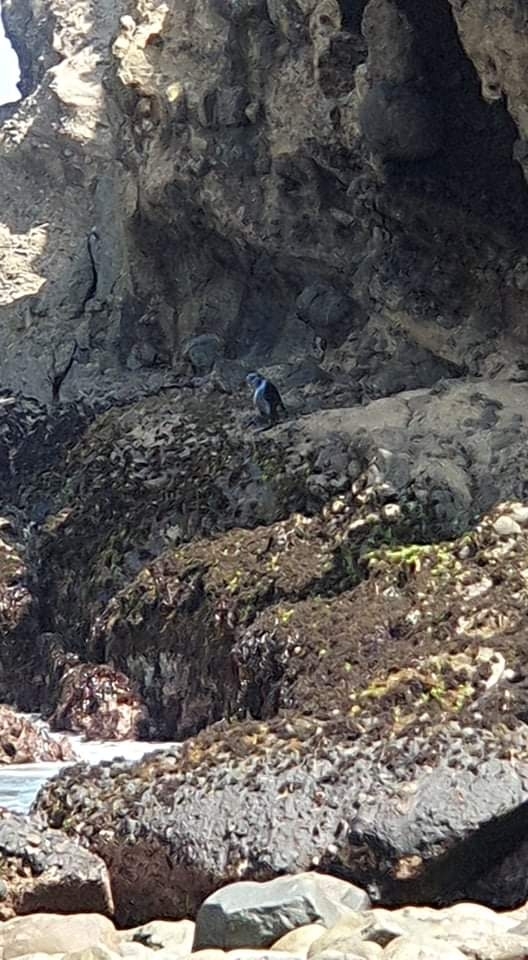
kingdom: Animalia
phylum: Chordata
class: Mammalia
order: Carnivora
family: Otariidae
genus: Arctocephalus
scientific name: Arctocephalus forsteri
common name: New zealand fur seal
